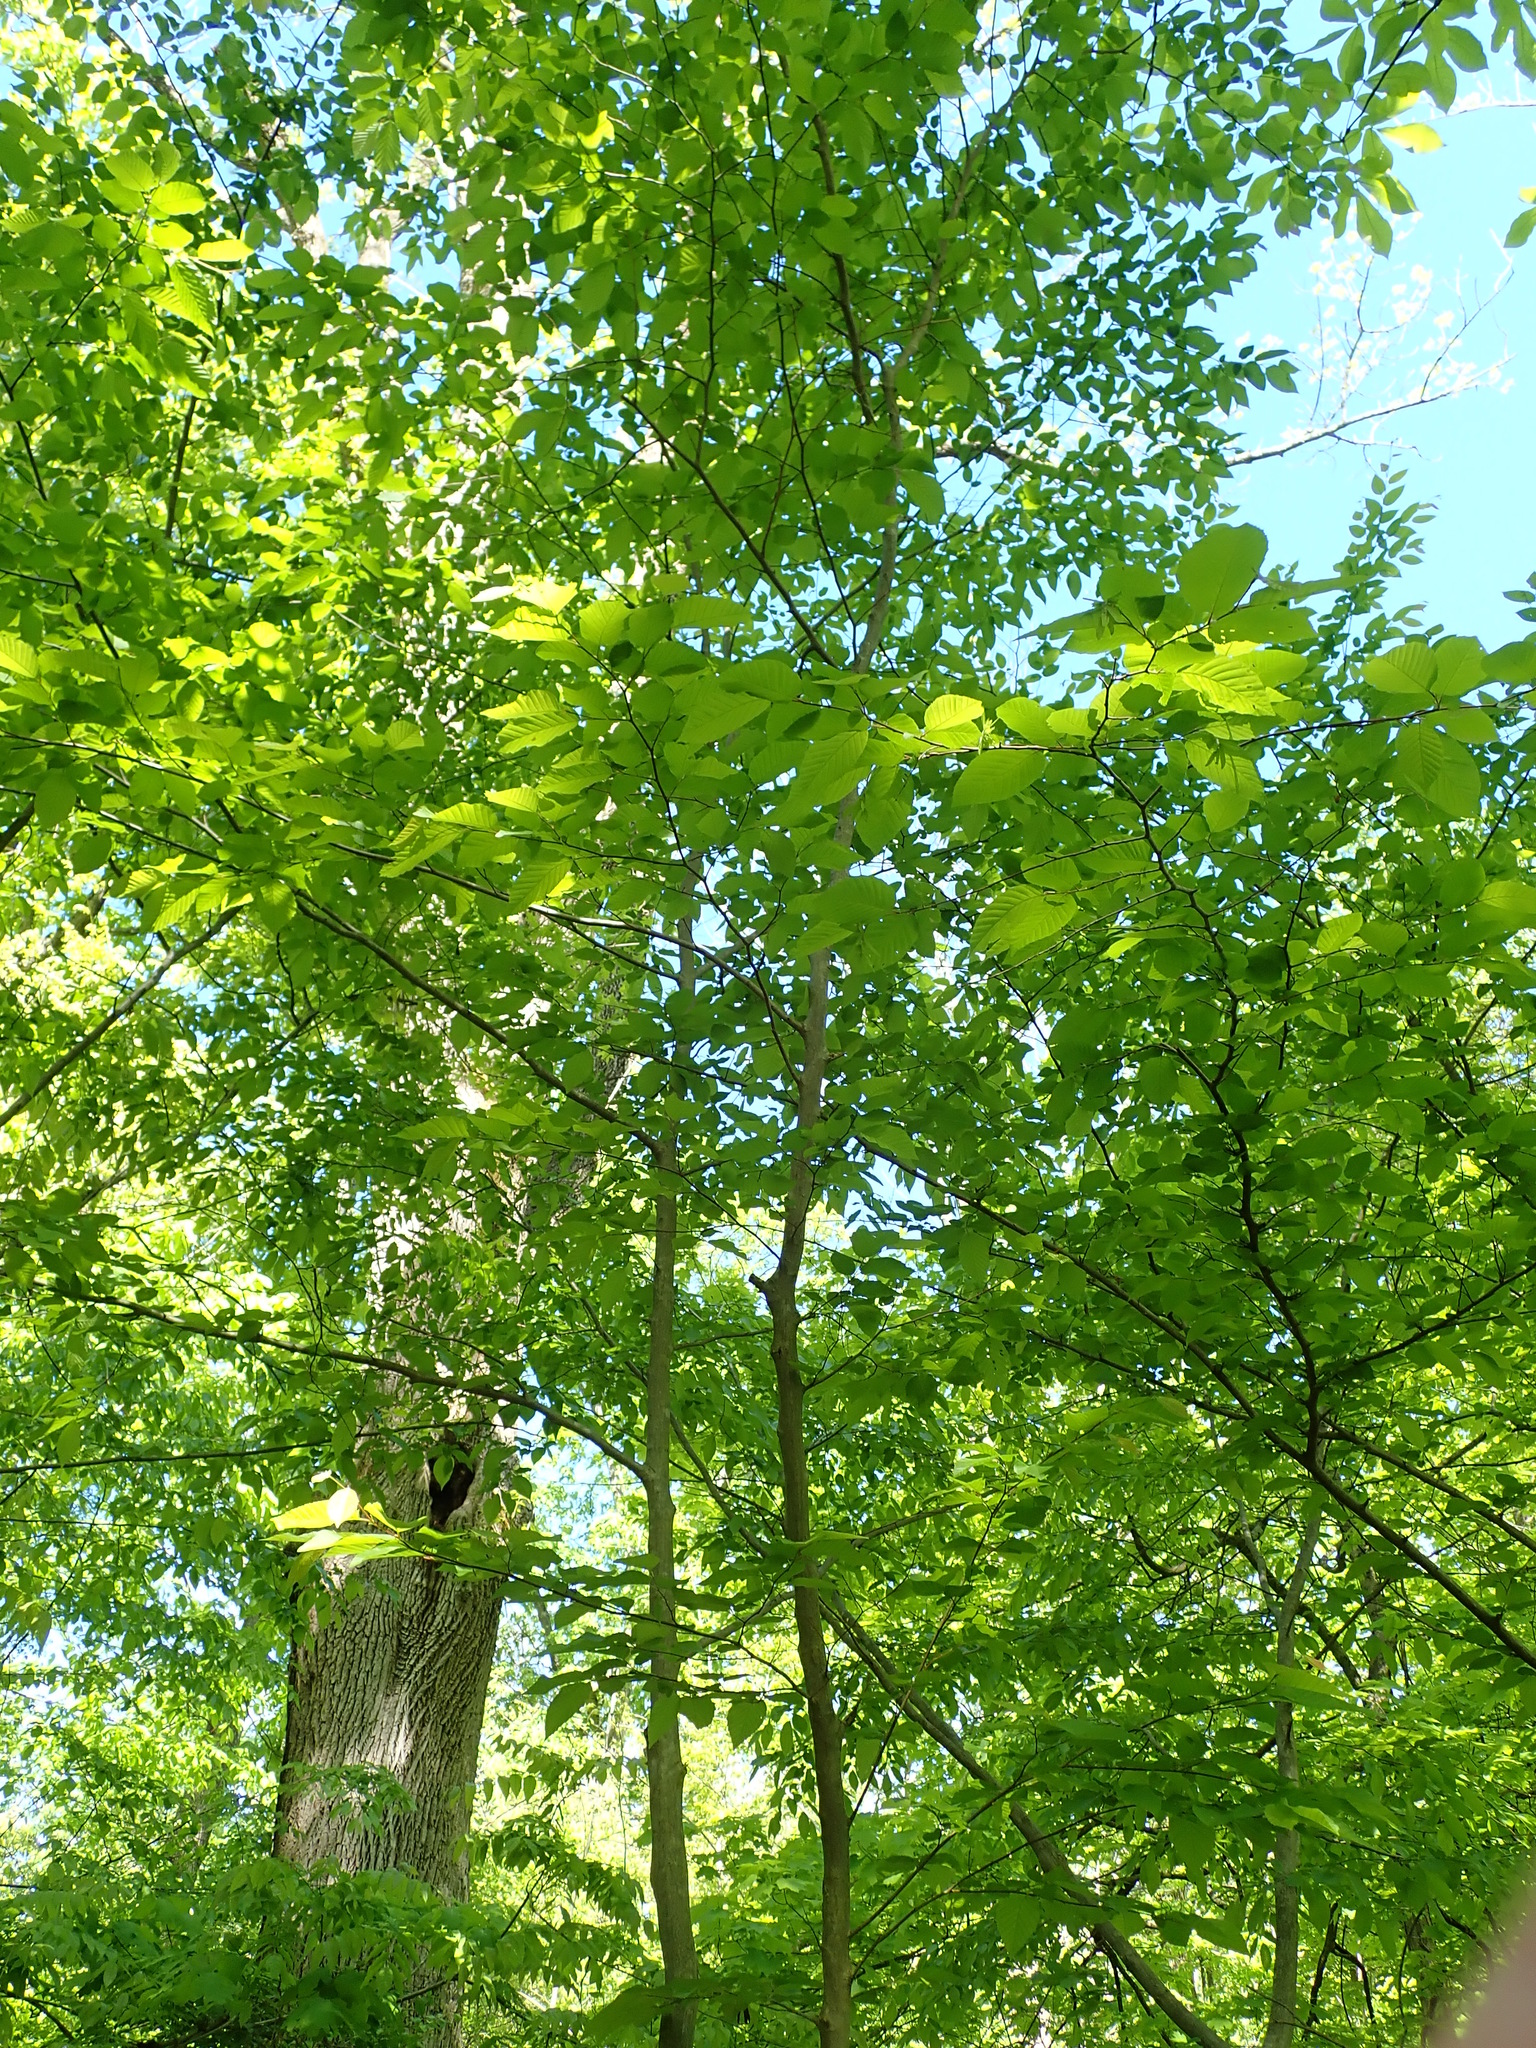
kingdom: Plantae
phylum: Tracheophyta
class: Magnoliopsida
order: Fagales
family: Betulaceae
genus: Carpinus
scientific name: Carpinus caroliniana
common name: American hornbeam
